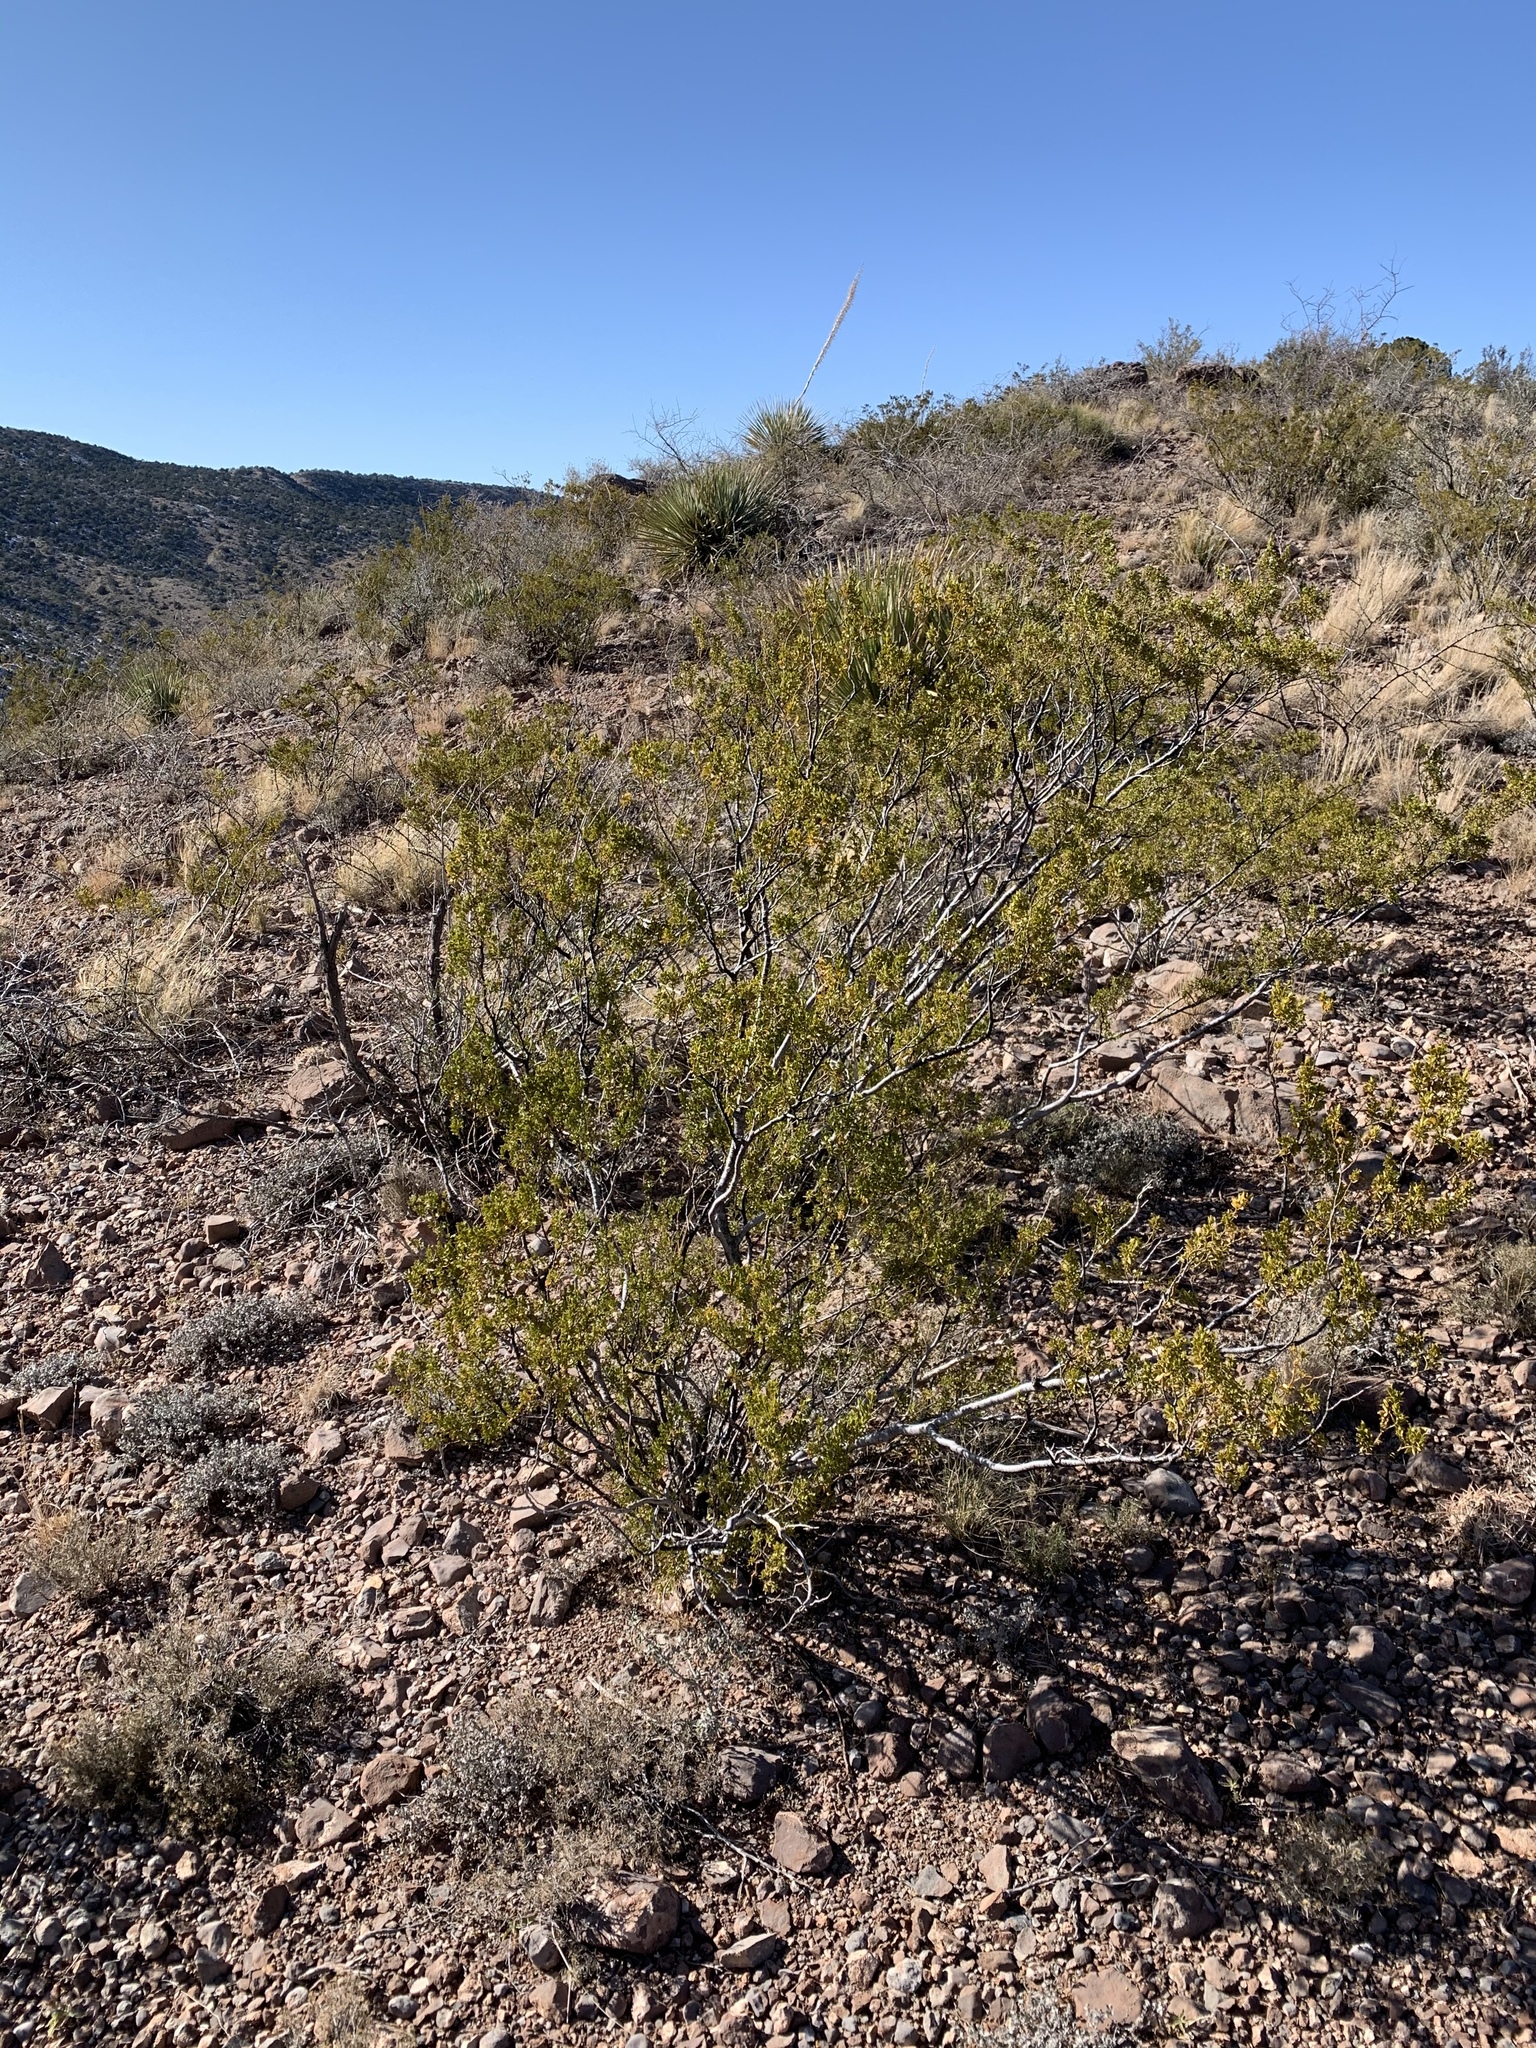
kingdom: Plantae
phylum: Tracheophyta
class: Magnoliopsida
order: Zygophyllales
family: Zygophyllaceae
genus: Larrea
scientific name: Larrea tridentata
